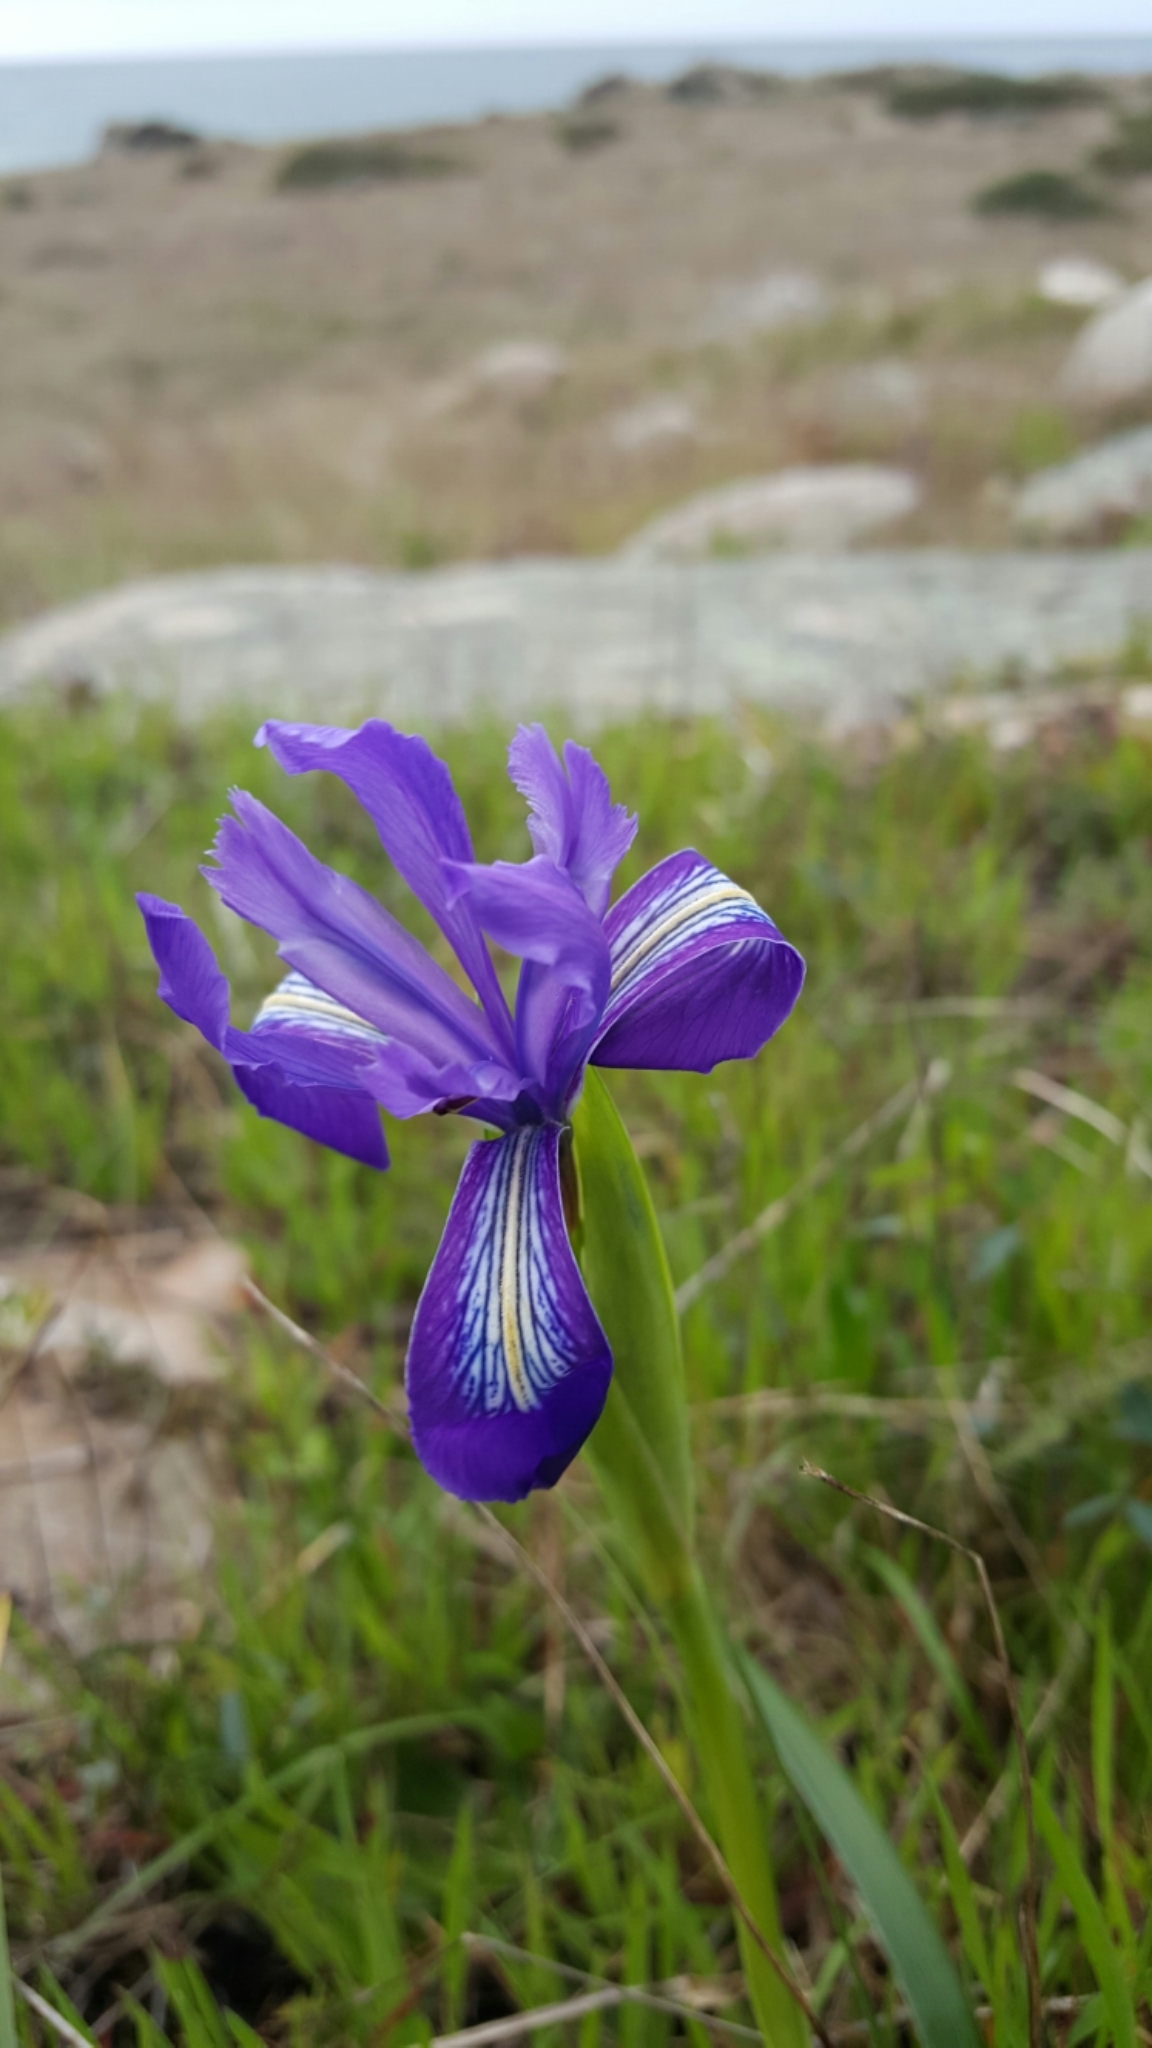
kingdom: Plantae
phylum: Tracheophyta
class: Liliopsida
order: Asparagales
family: Iridaceae
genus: Iris
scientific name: Iris douglasiana
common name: Marin iris
